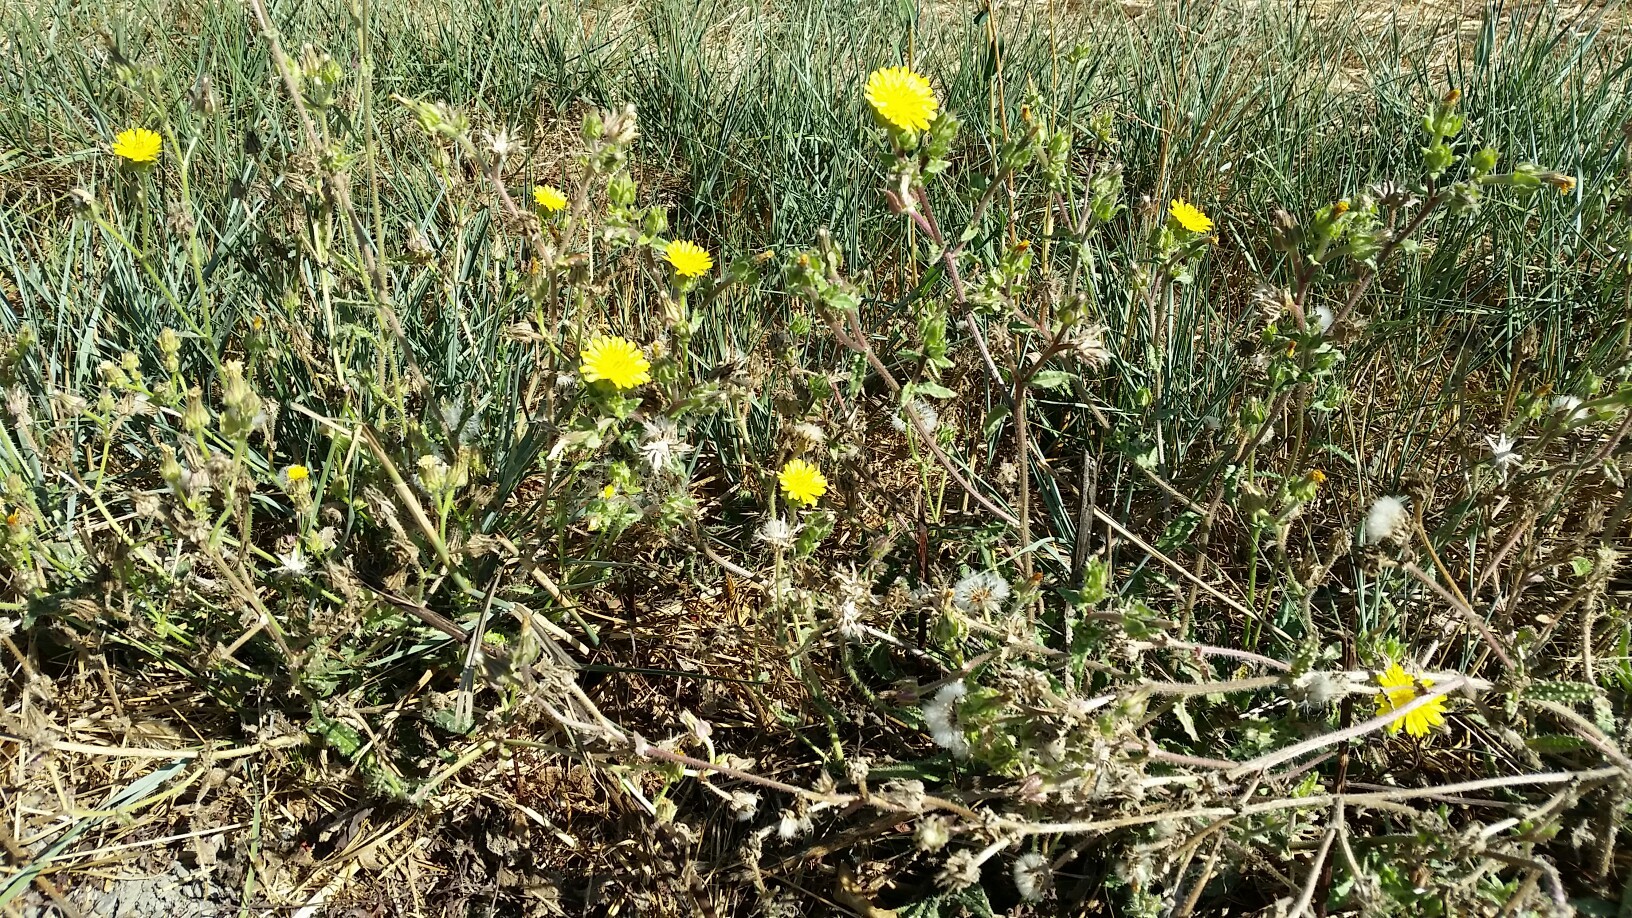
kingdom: Plantae
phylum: Tracheophyta
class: Magnoliopsida
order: Asterales
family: Asteraceae
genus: Helminthotheca
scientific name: Helminthotheca echioides
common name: Ox-tongue
